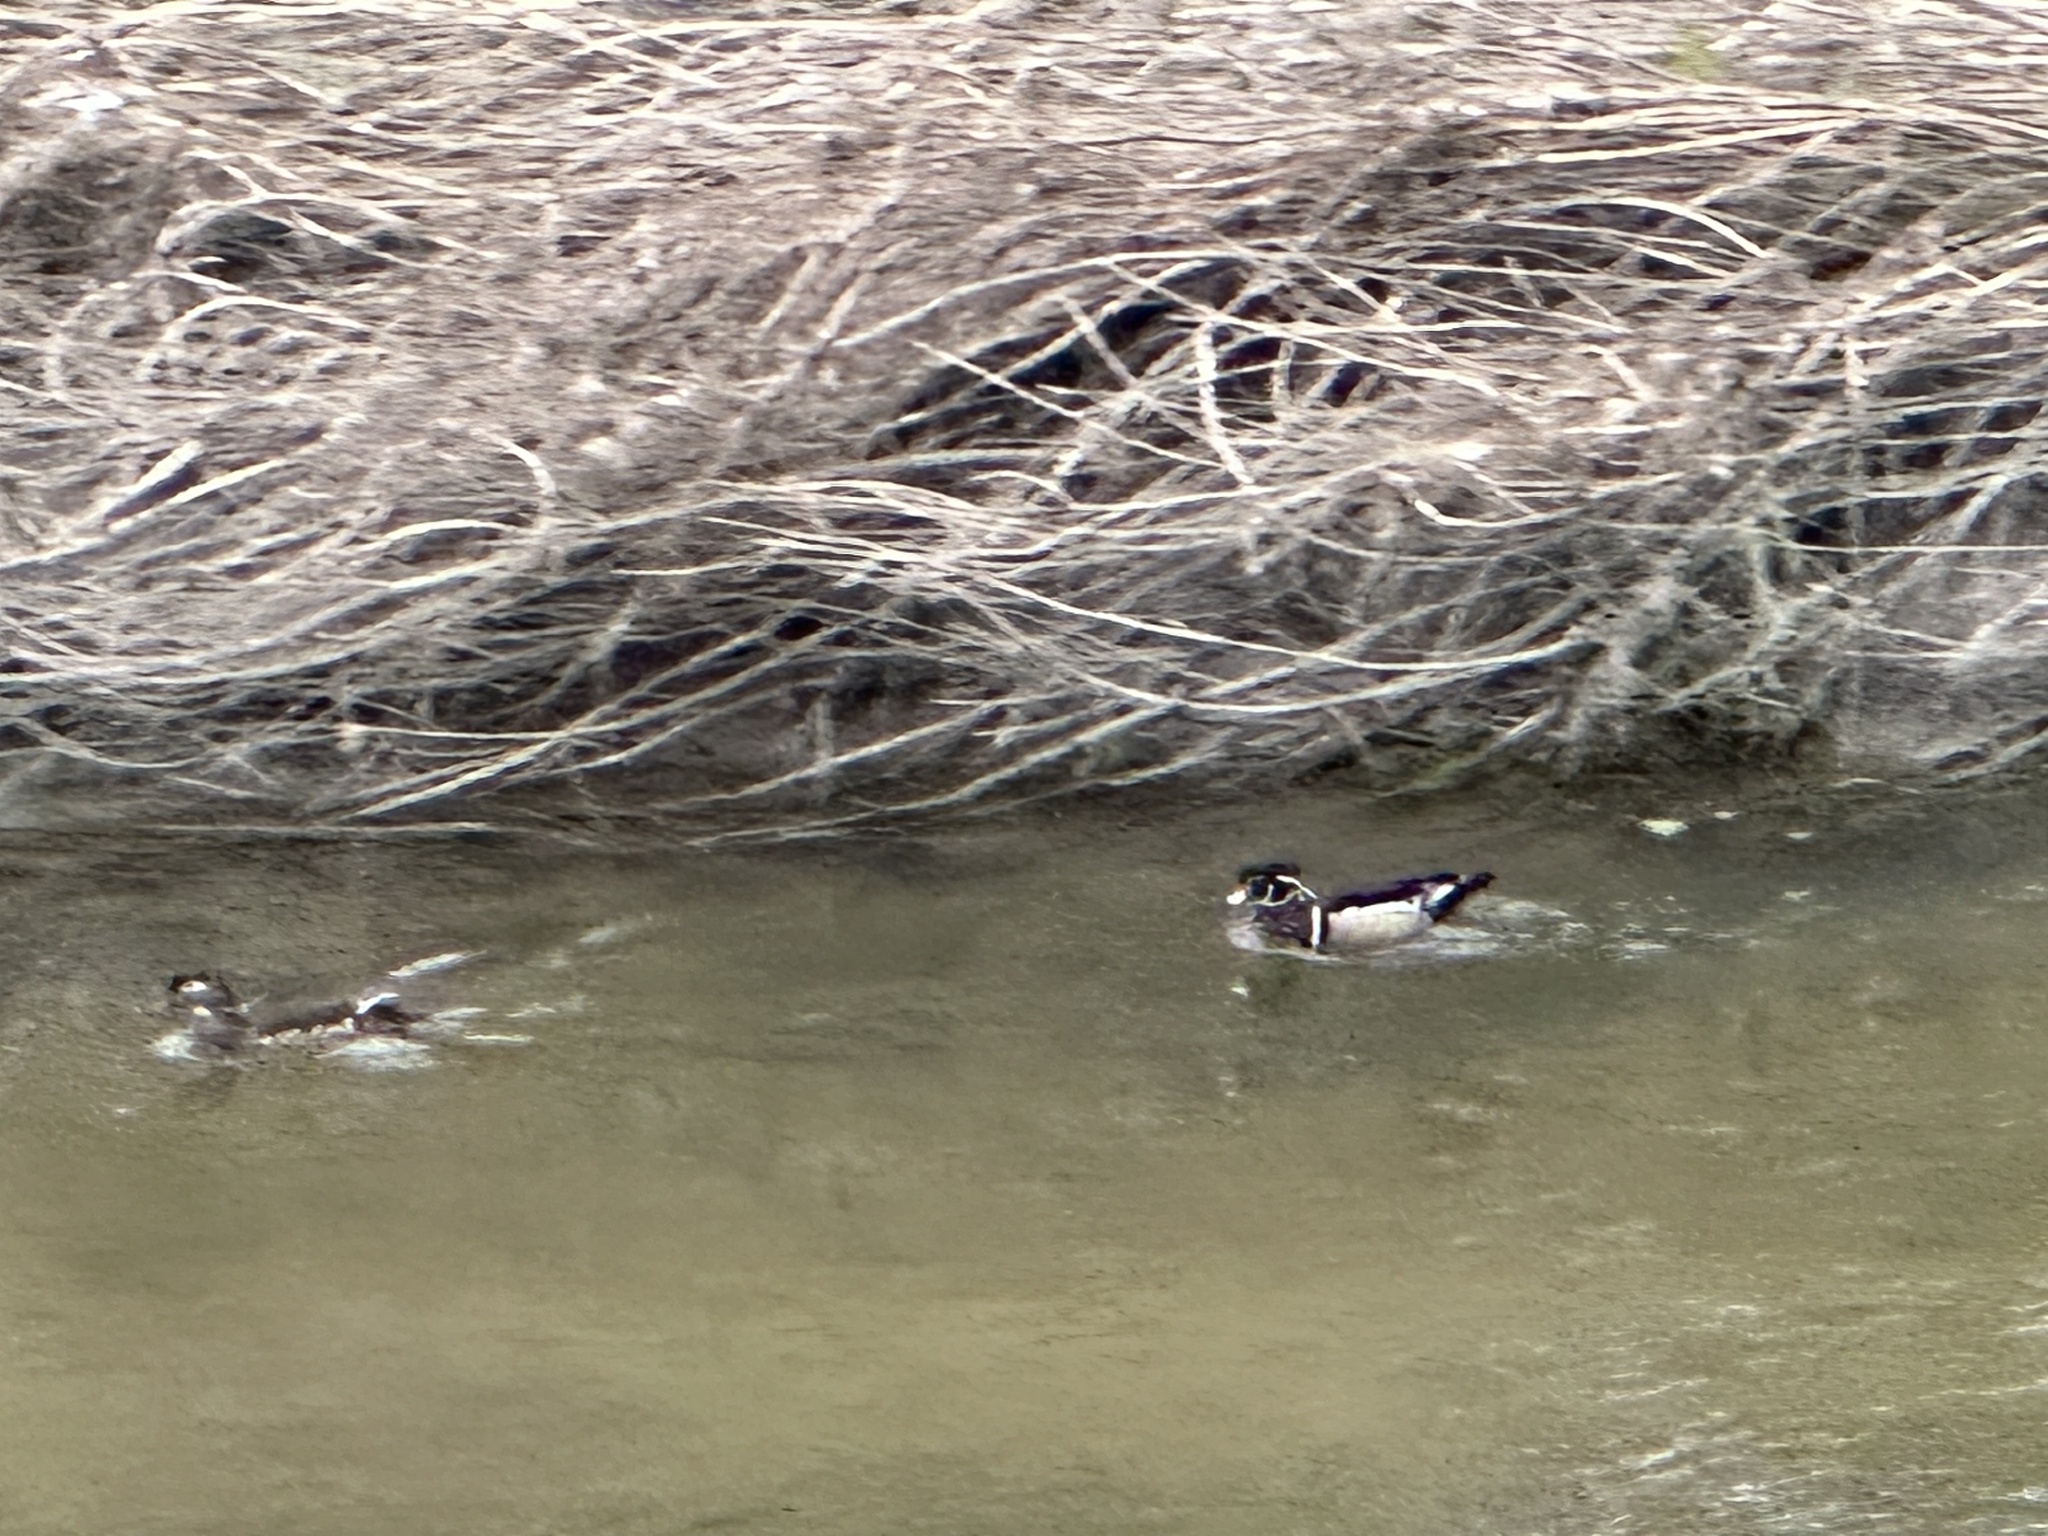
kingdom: Animalia
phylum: Chordata
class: Aves
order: Anseriformes
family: Anatidae
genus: Aix
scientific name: Aix sponsa
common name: Wood duck
